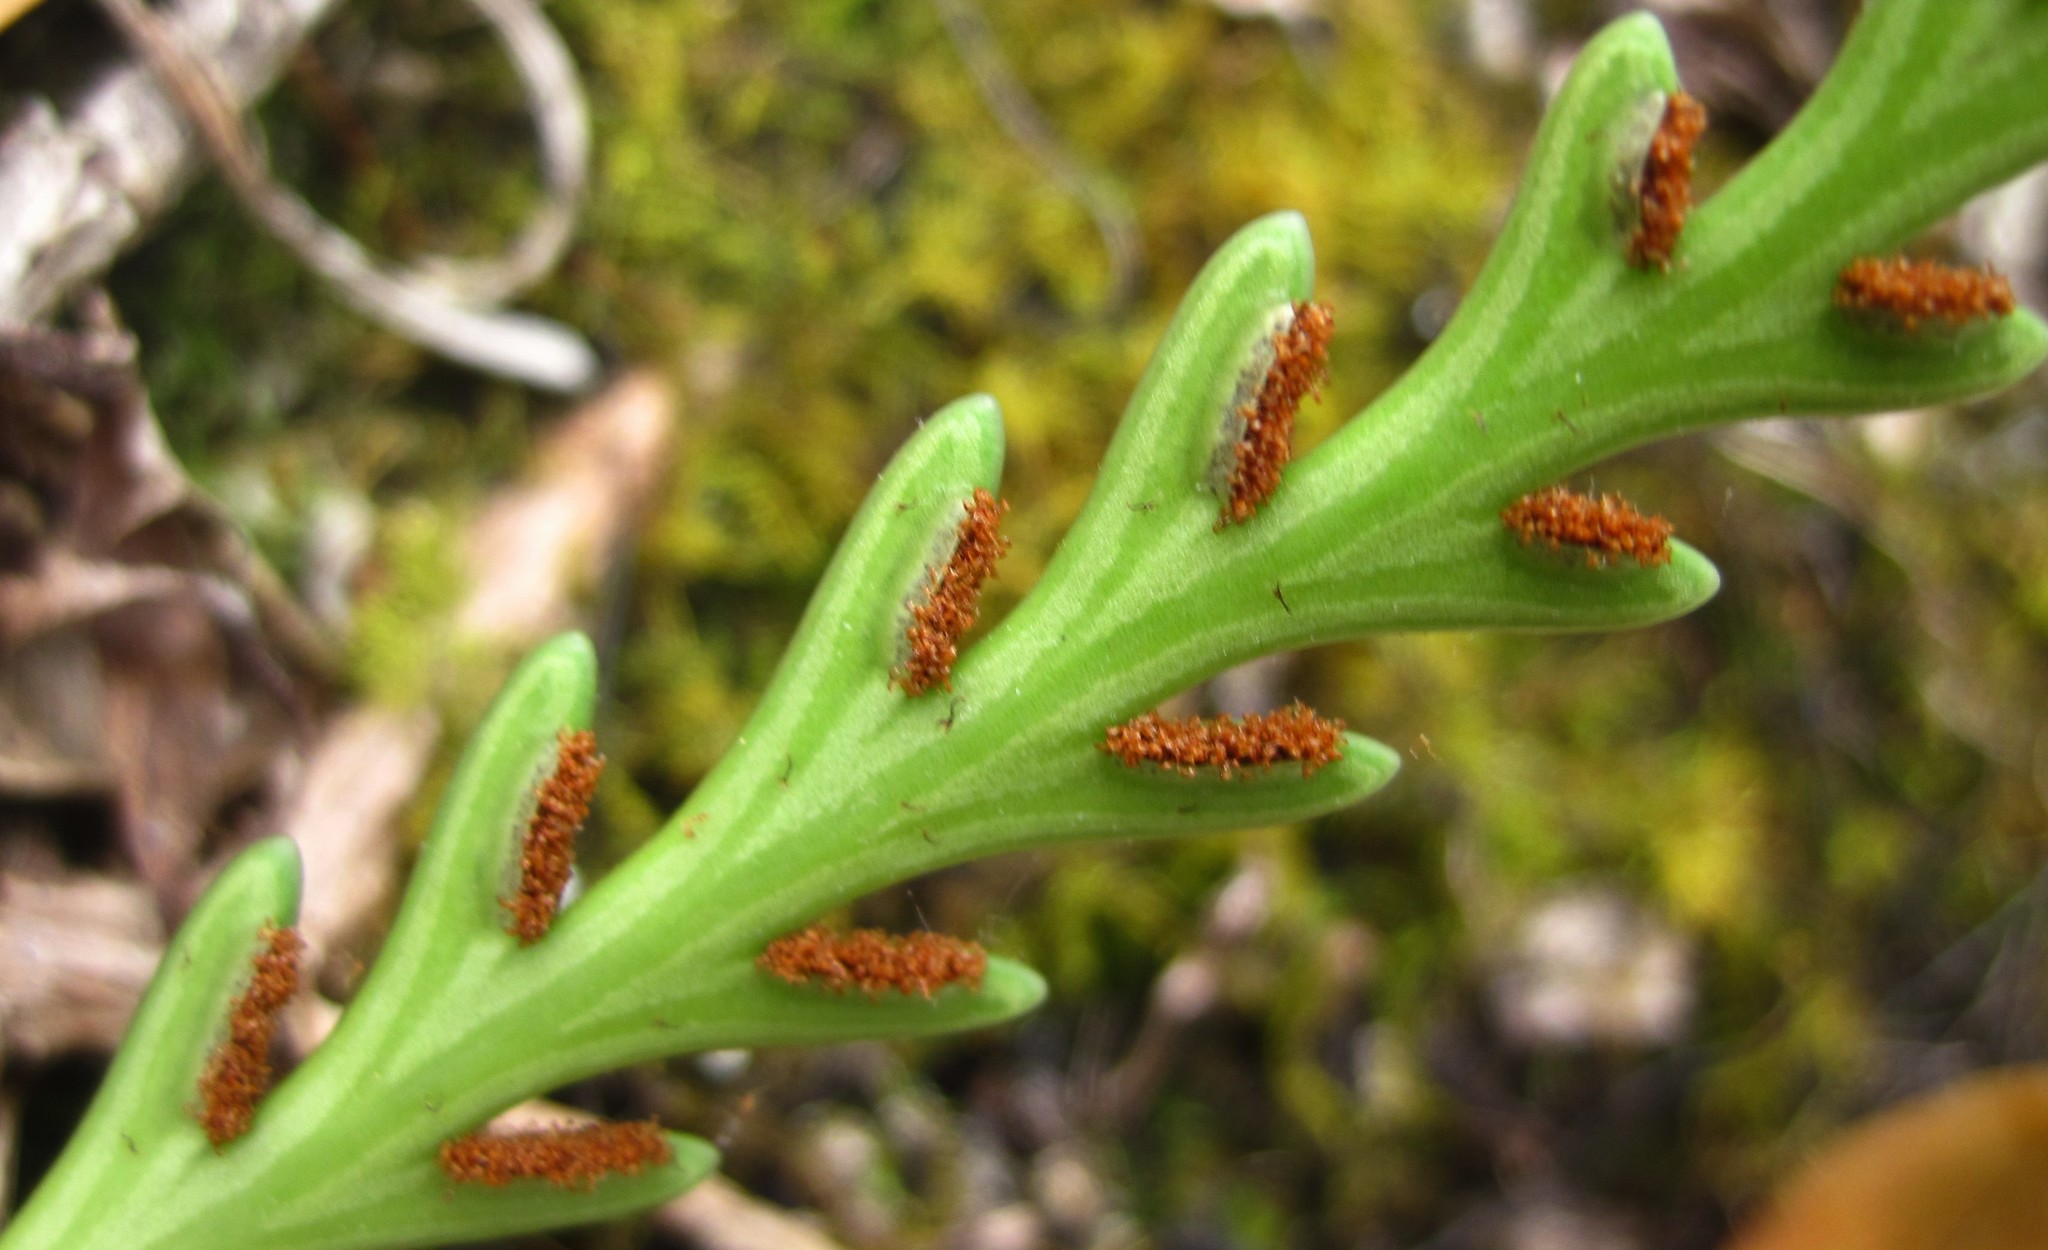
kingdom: Plantae
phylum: Tracheophyta
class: Polypodiopsida
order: Polypodiales
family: Aspleniaceae
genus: Asplenium
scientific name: Asplenium flaccidum
